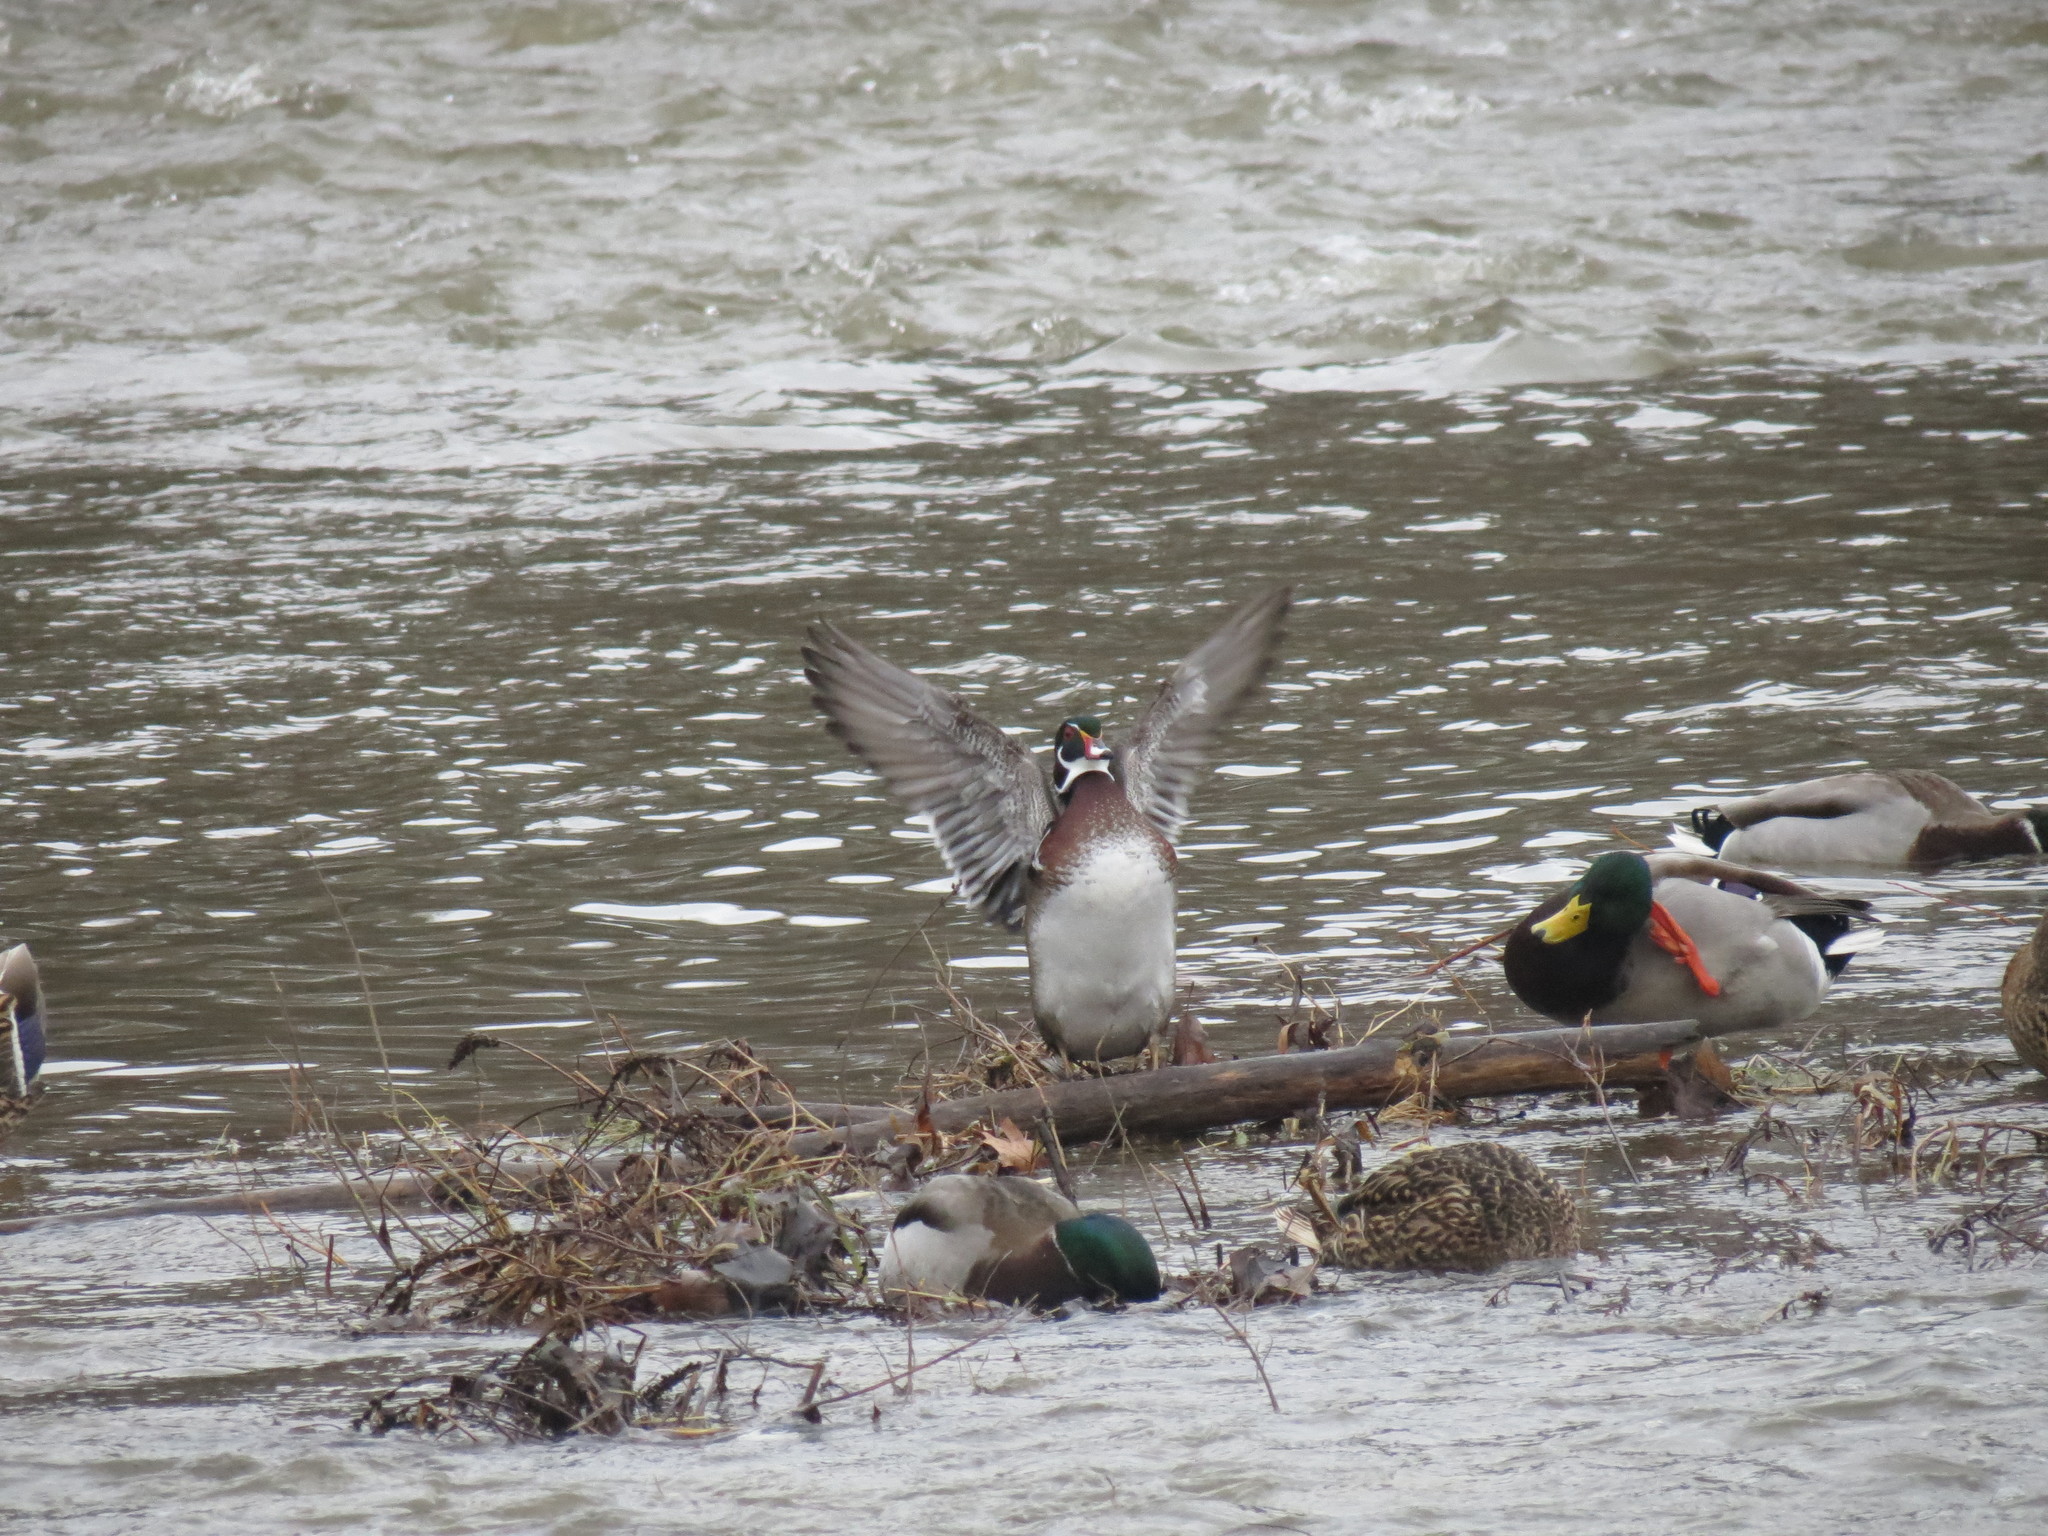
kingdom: Animalia
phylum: Chordata
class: Aves
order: Anseriformes
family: Anatidae
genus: Aix
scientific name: Aix sponsa
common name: Wood duck
